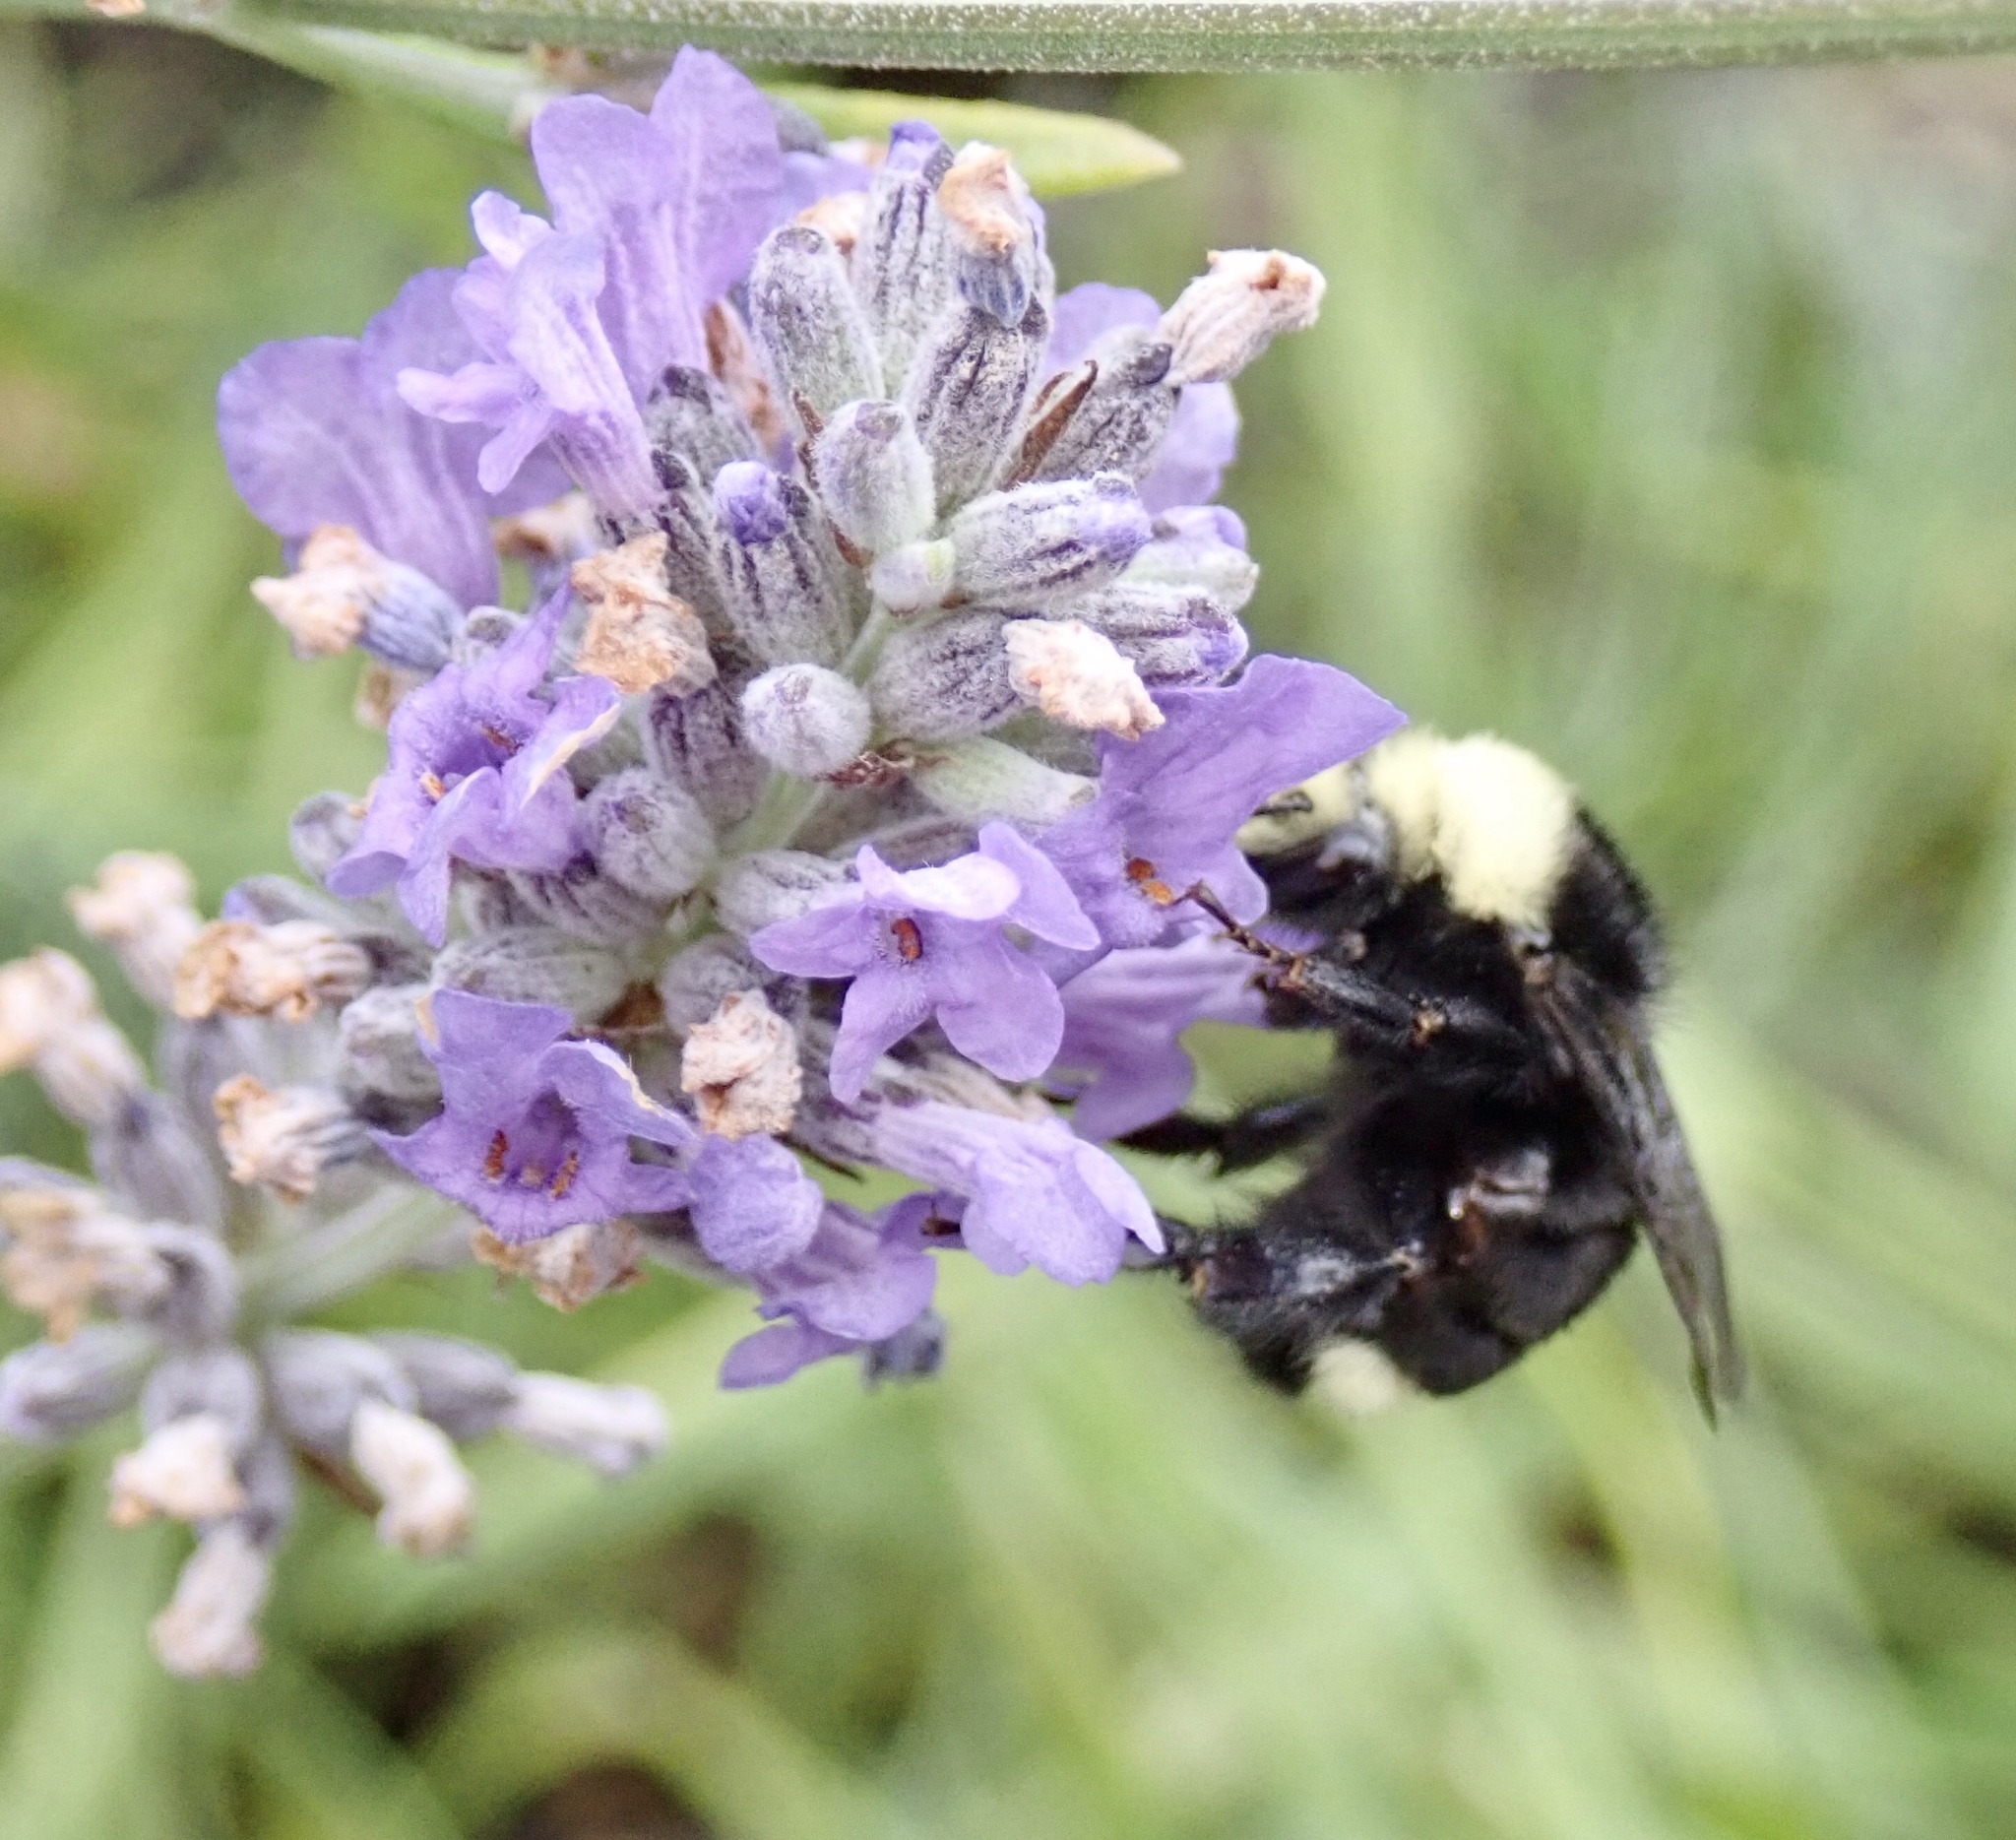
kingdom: Animalia
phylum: Arthropoda
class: Insecta
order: Hymenoptera
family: Apidae
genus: Bombus
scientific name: Bombus vosnesenskii
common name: Vosnesensky bumble bee
